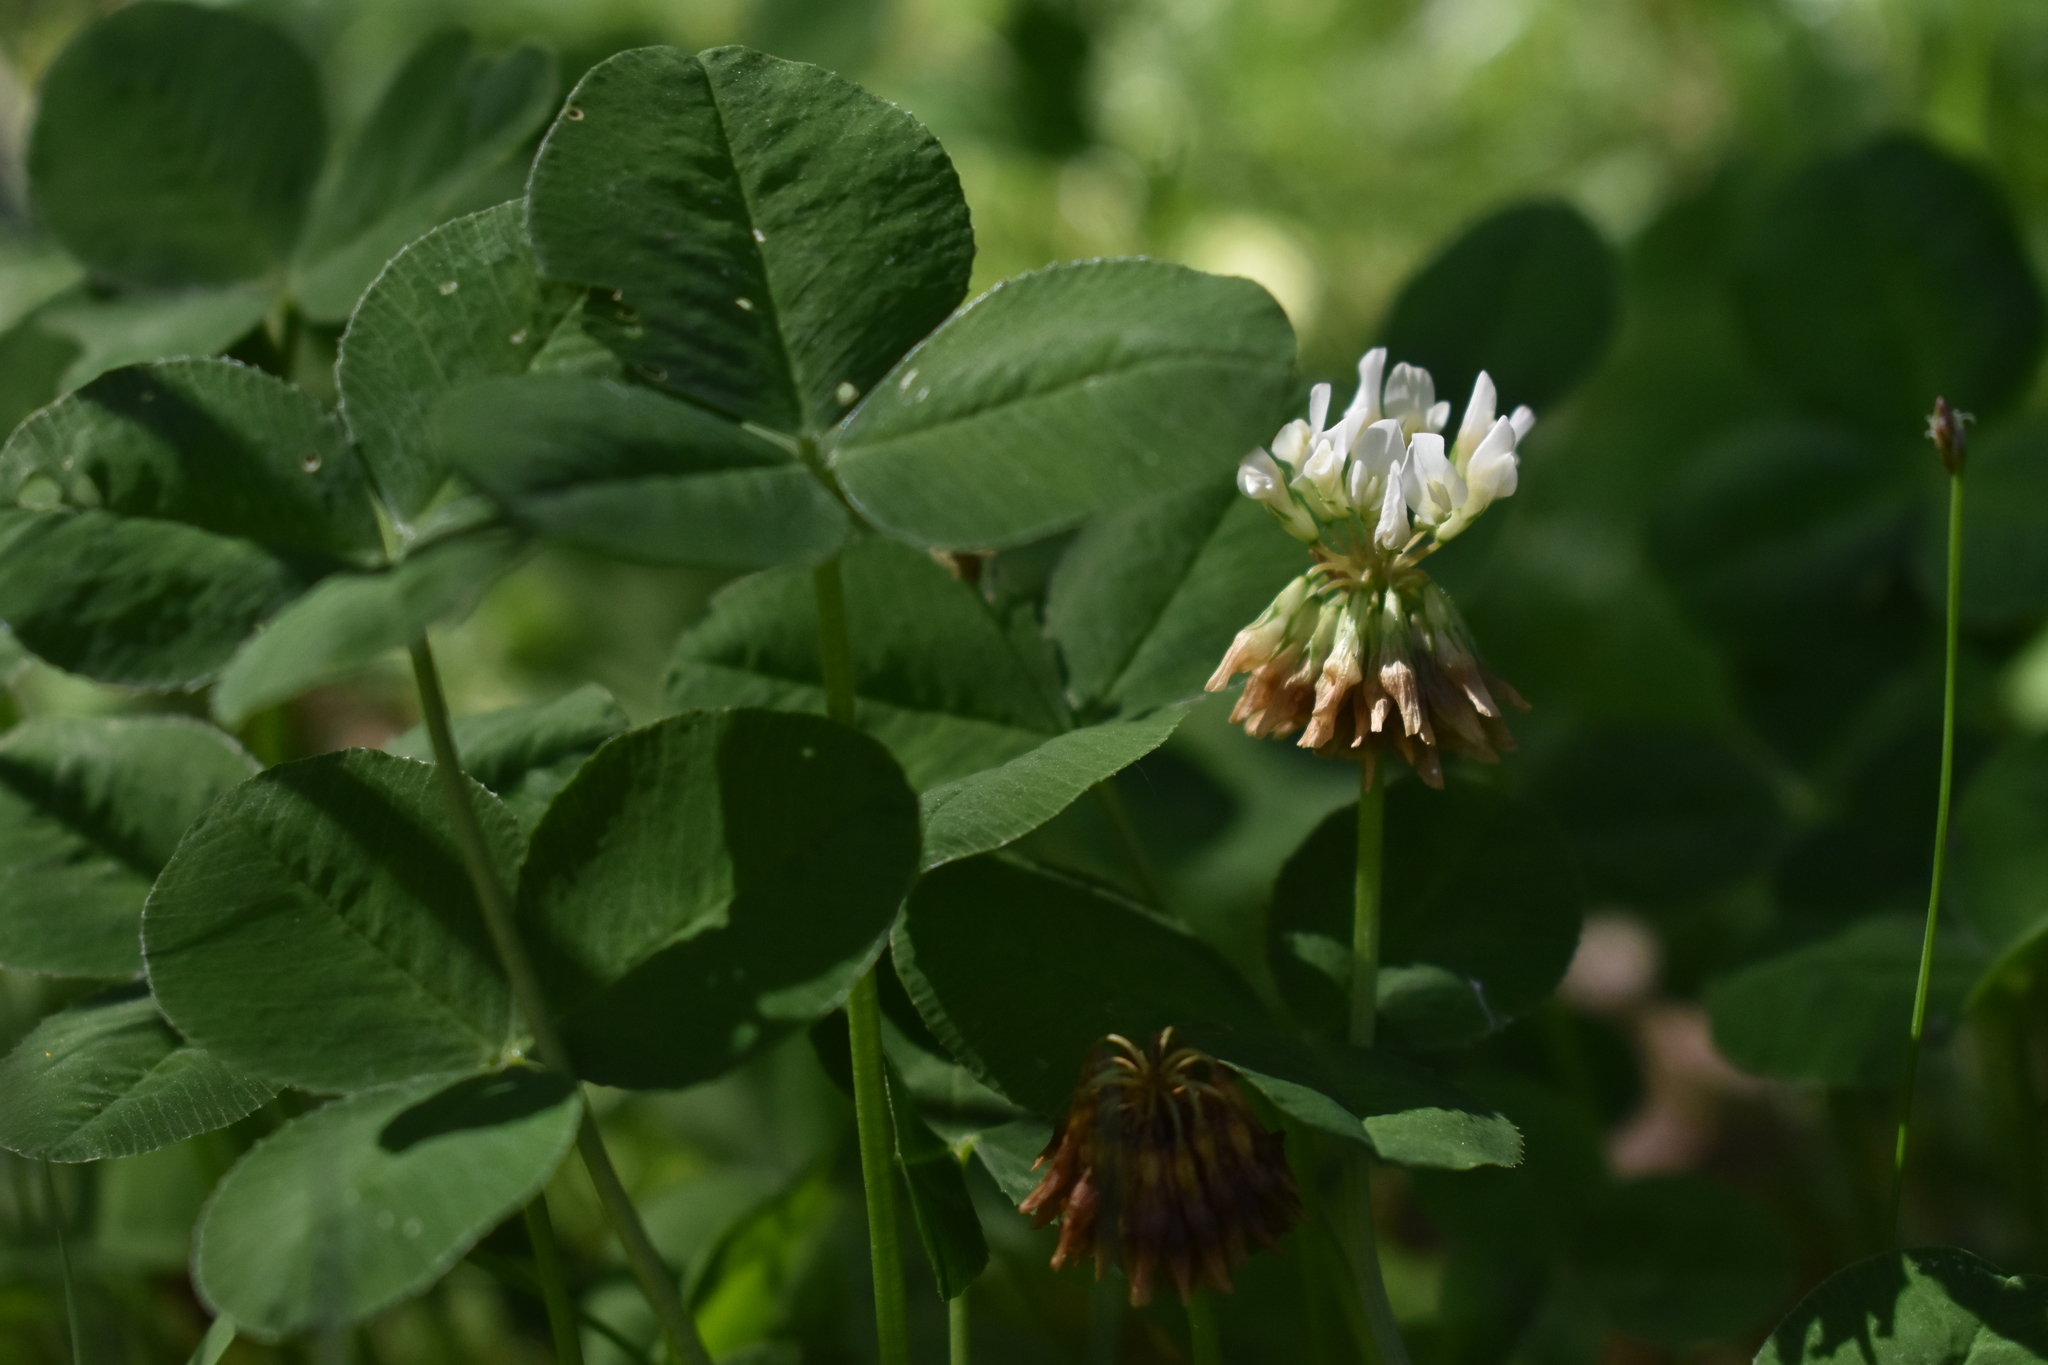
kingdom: Plantae
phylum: Tracheophyta
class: Magnoliopsida
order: Fabales
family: Fabaceae
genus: Trifolium
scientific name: Trifolium repens
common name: White clover
